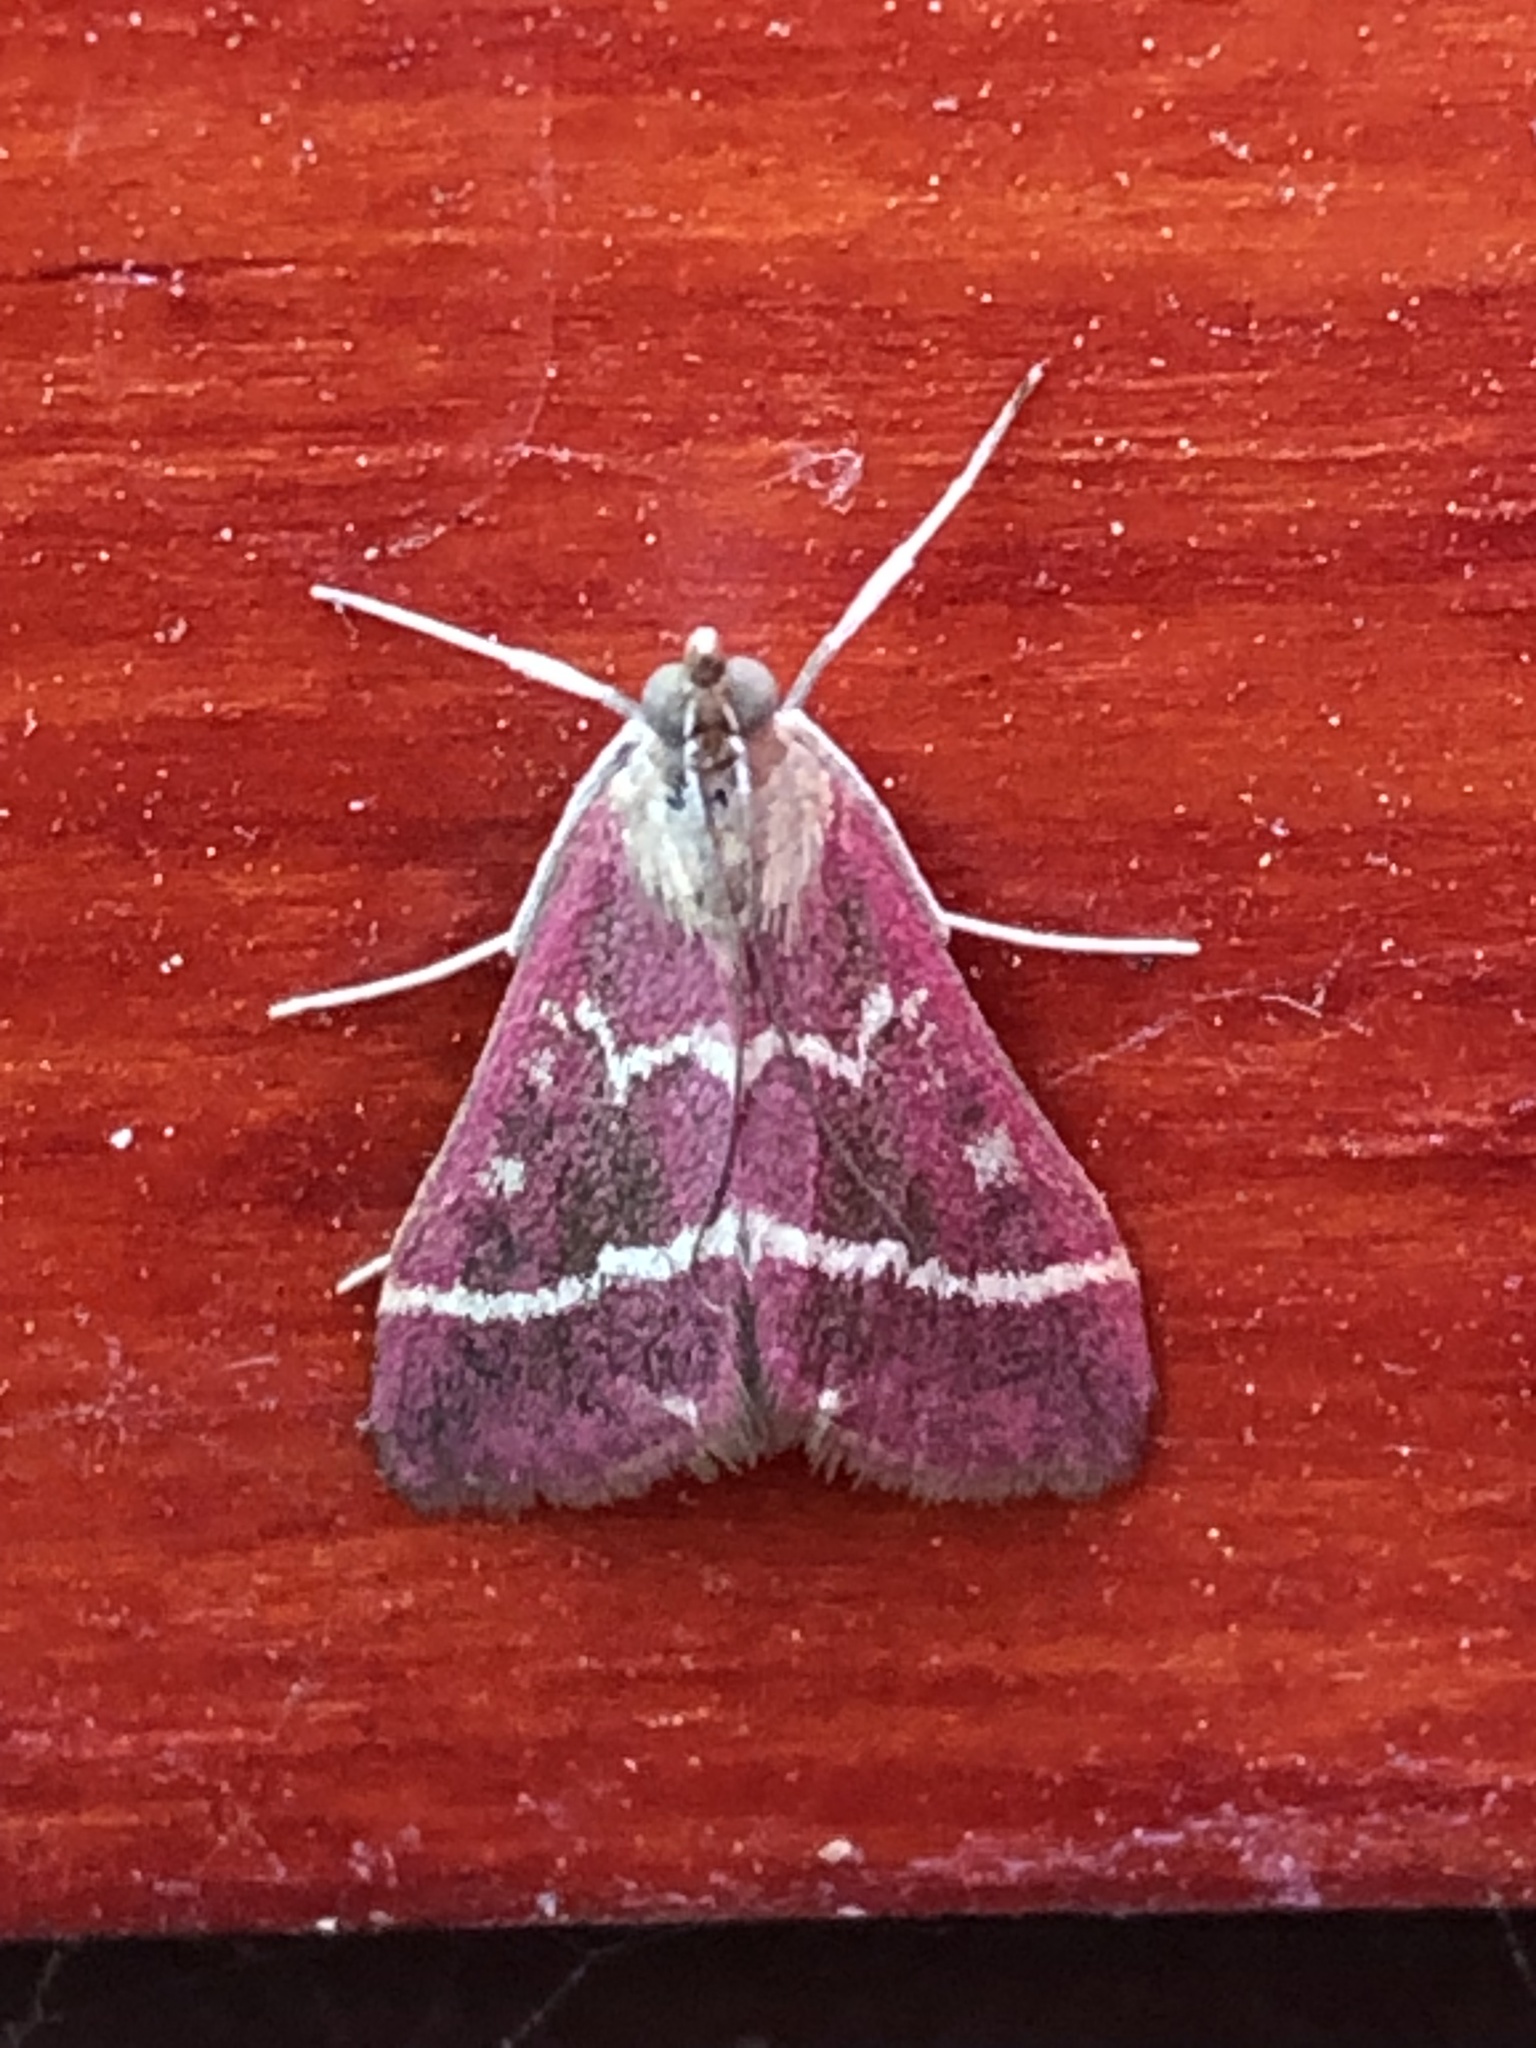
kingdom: Animalia
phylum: Arthropoda
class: Insecta
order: Lepidoptera
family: Crambidae
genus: Pyrausta
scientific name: Pyrausta volupialis
